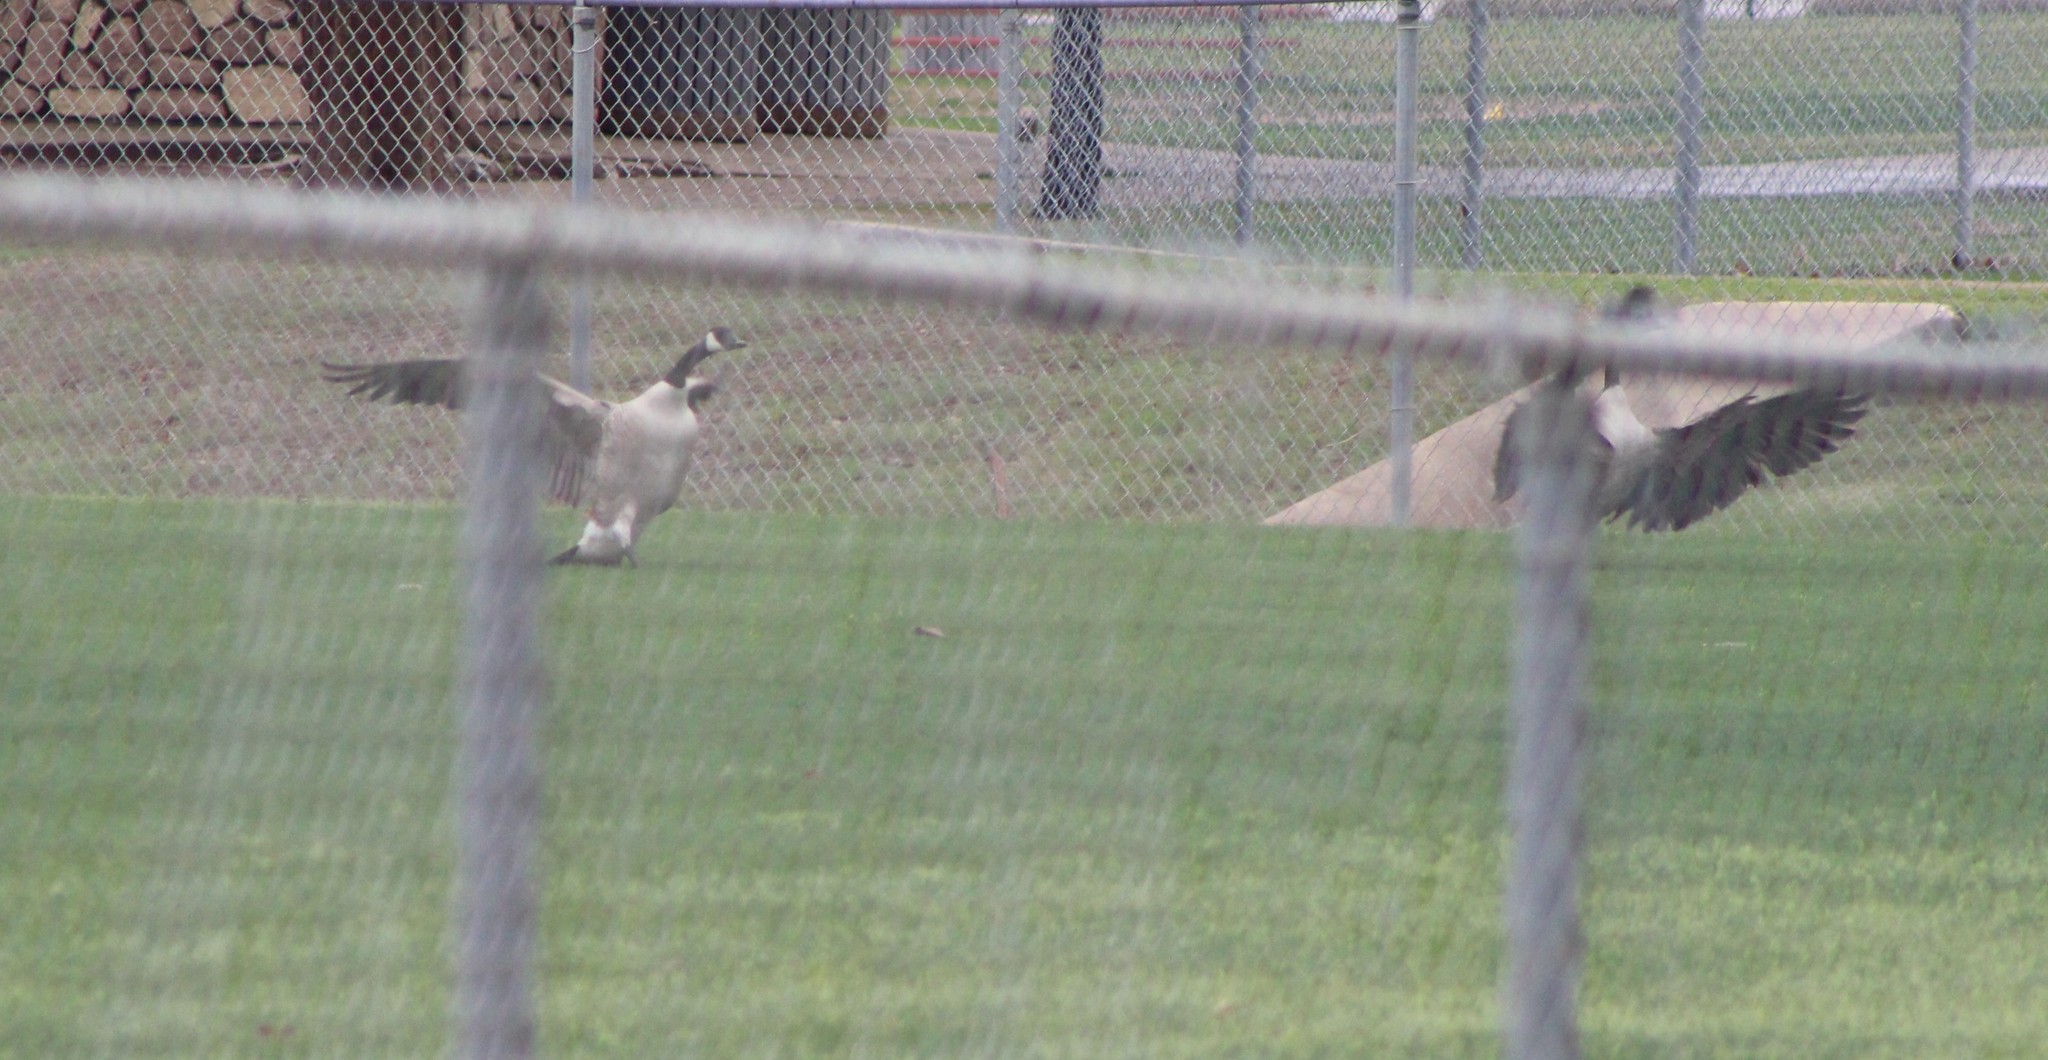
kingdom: Animalia
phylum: Chordata
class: Aves
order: Anseriformes
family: Anatidae
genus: Branta
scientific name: Branta canadensis
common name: Canada goose
